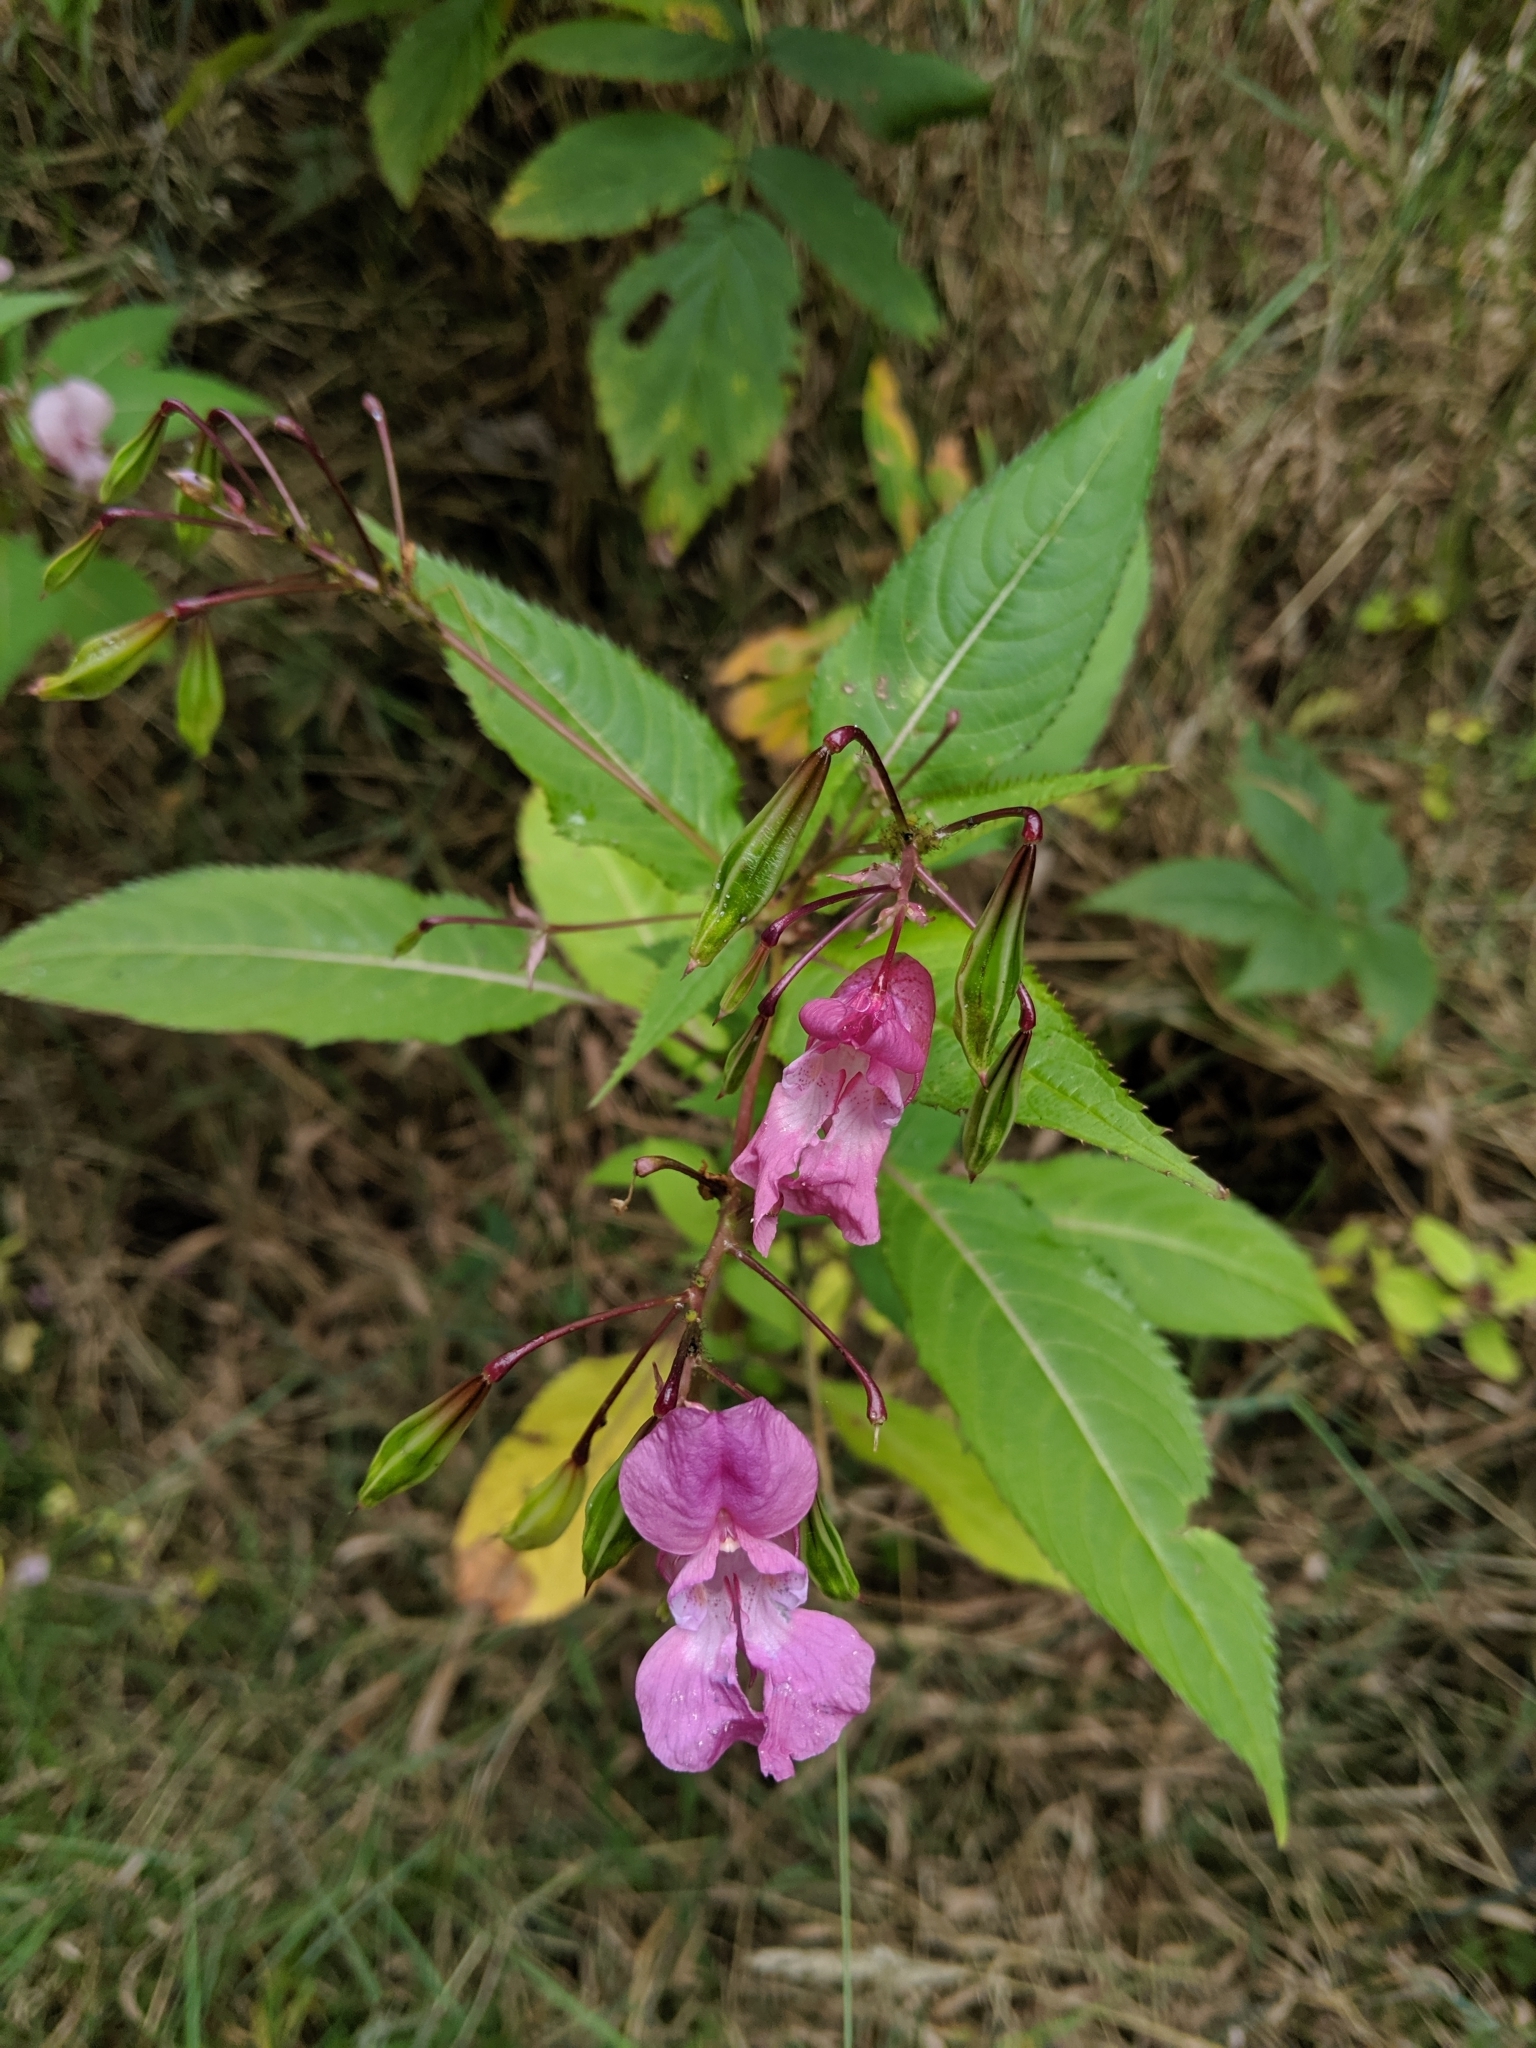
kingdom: Plantae
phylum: Tracheophyta
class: Magnoliopsida
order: Ericales
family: Balsaminaceae
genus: Impatiens
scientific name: Impatiens glandulifera
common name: Himalayan balsam
